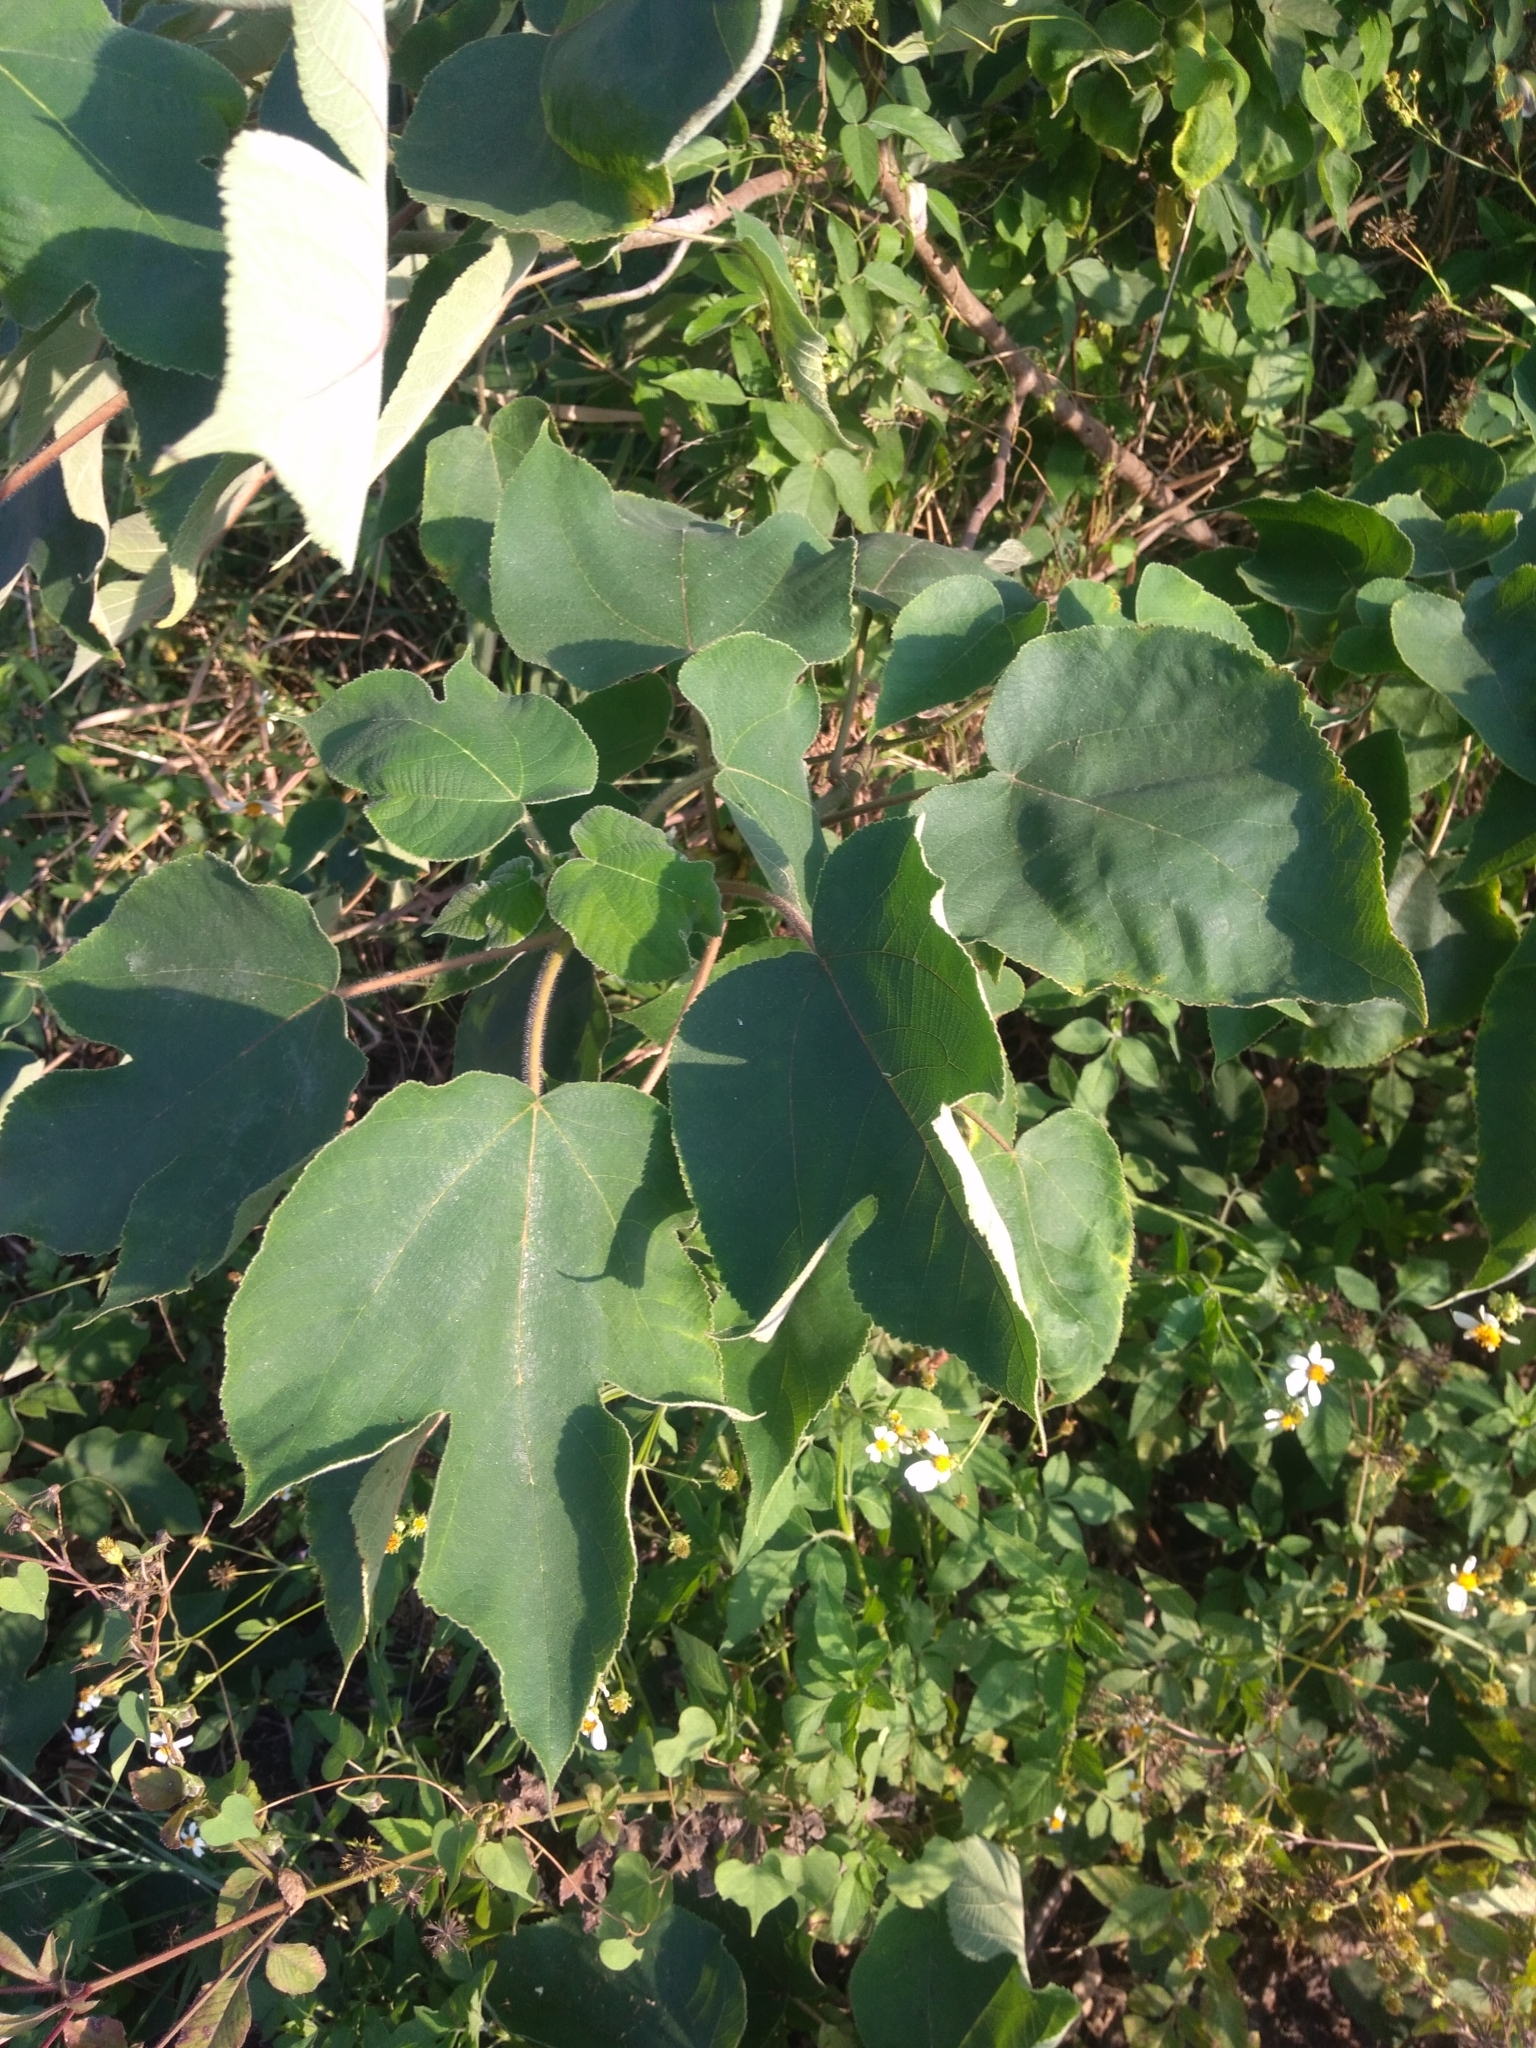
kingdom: Plantae
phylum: Tracheophyta
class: Magnoliopsida
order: Rosales
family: Moraceae
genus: Broussonetia
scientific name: Broussonetia papyrifera
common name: Paper mulberry
